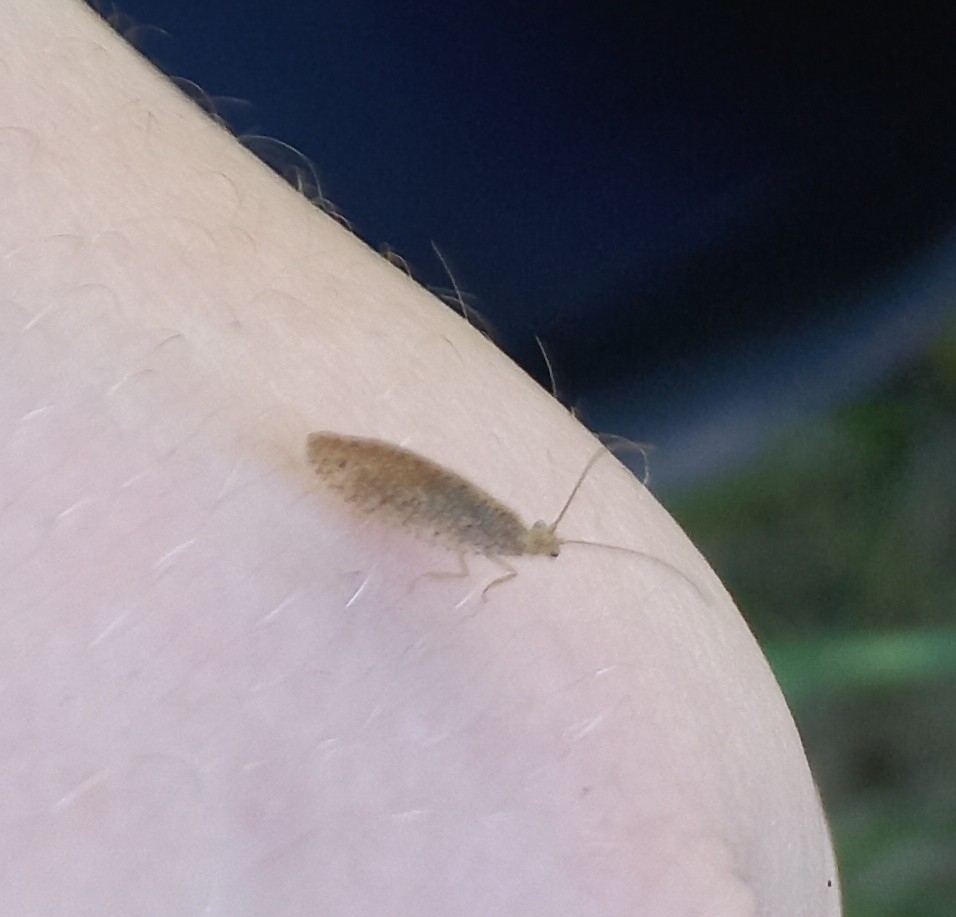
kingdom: Animalia
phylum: Arthropoda
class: Insecta
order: Neuroptera
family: Hemerobiidae
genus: Micromus
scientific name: Micromus tasmaniae
